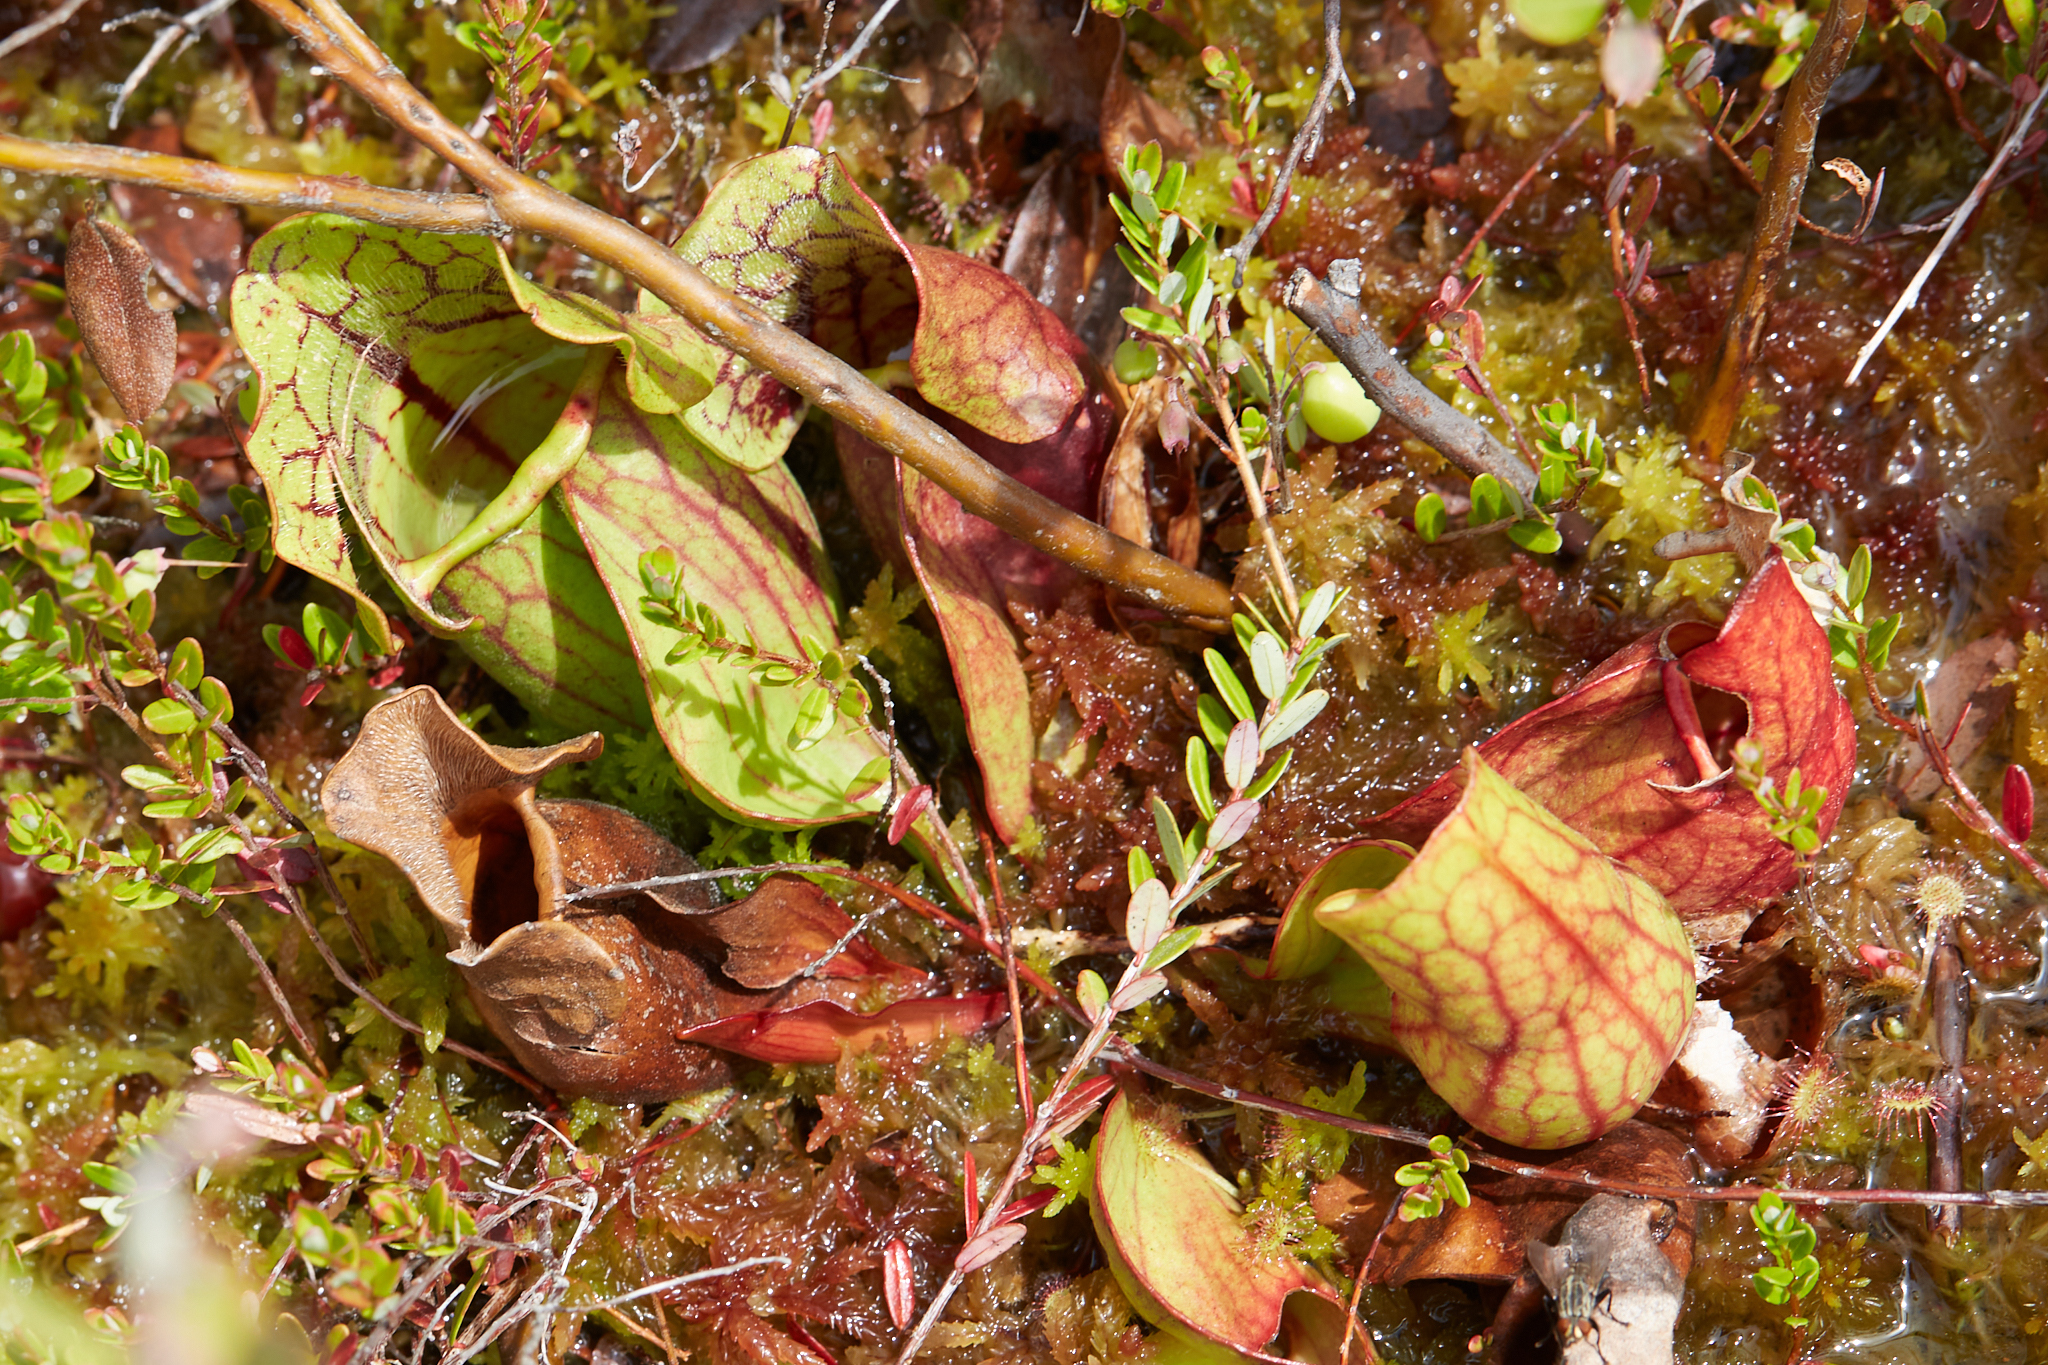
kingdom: Plantae
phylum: Tracheophyta
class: Magnoliopsida
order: Ericales
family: Sarraceniaceae
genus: Sarracenia
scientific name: Sarracenia purpurea
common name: Pitcherplant
